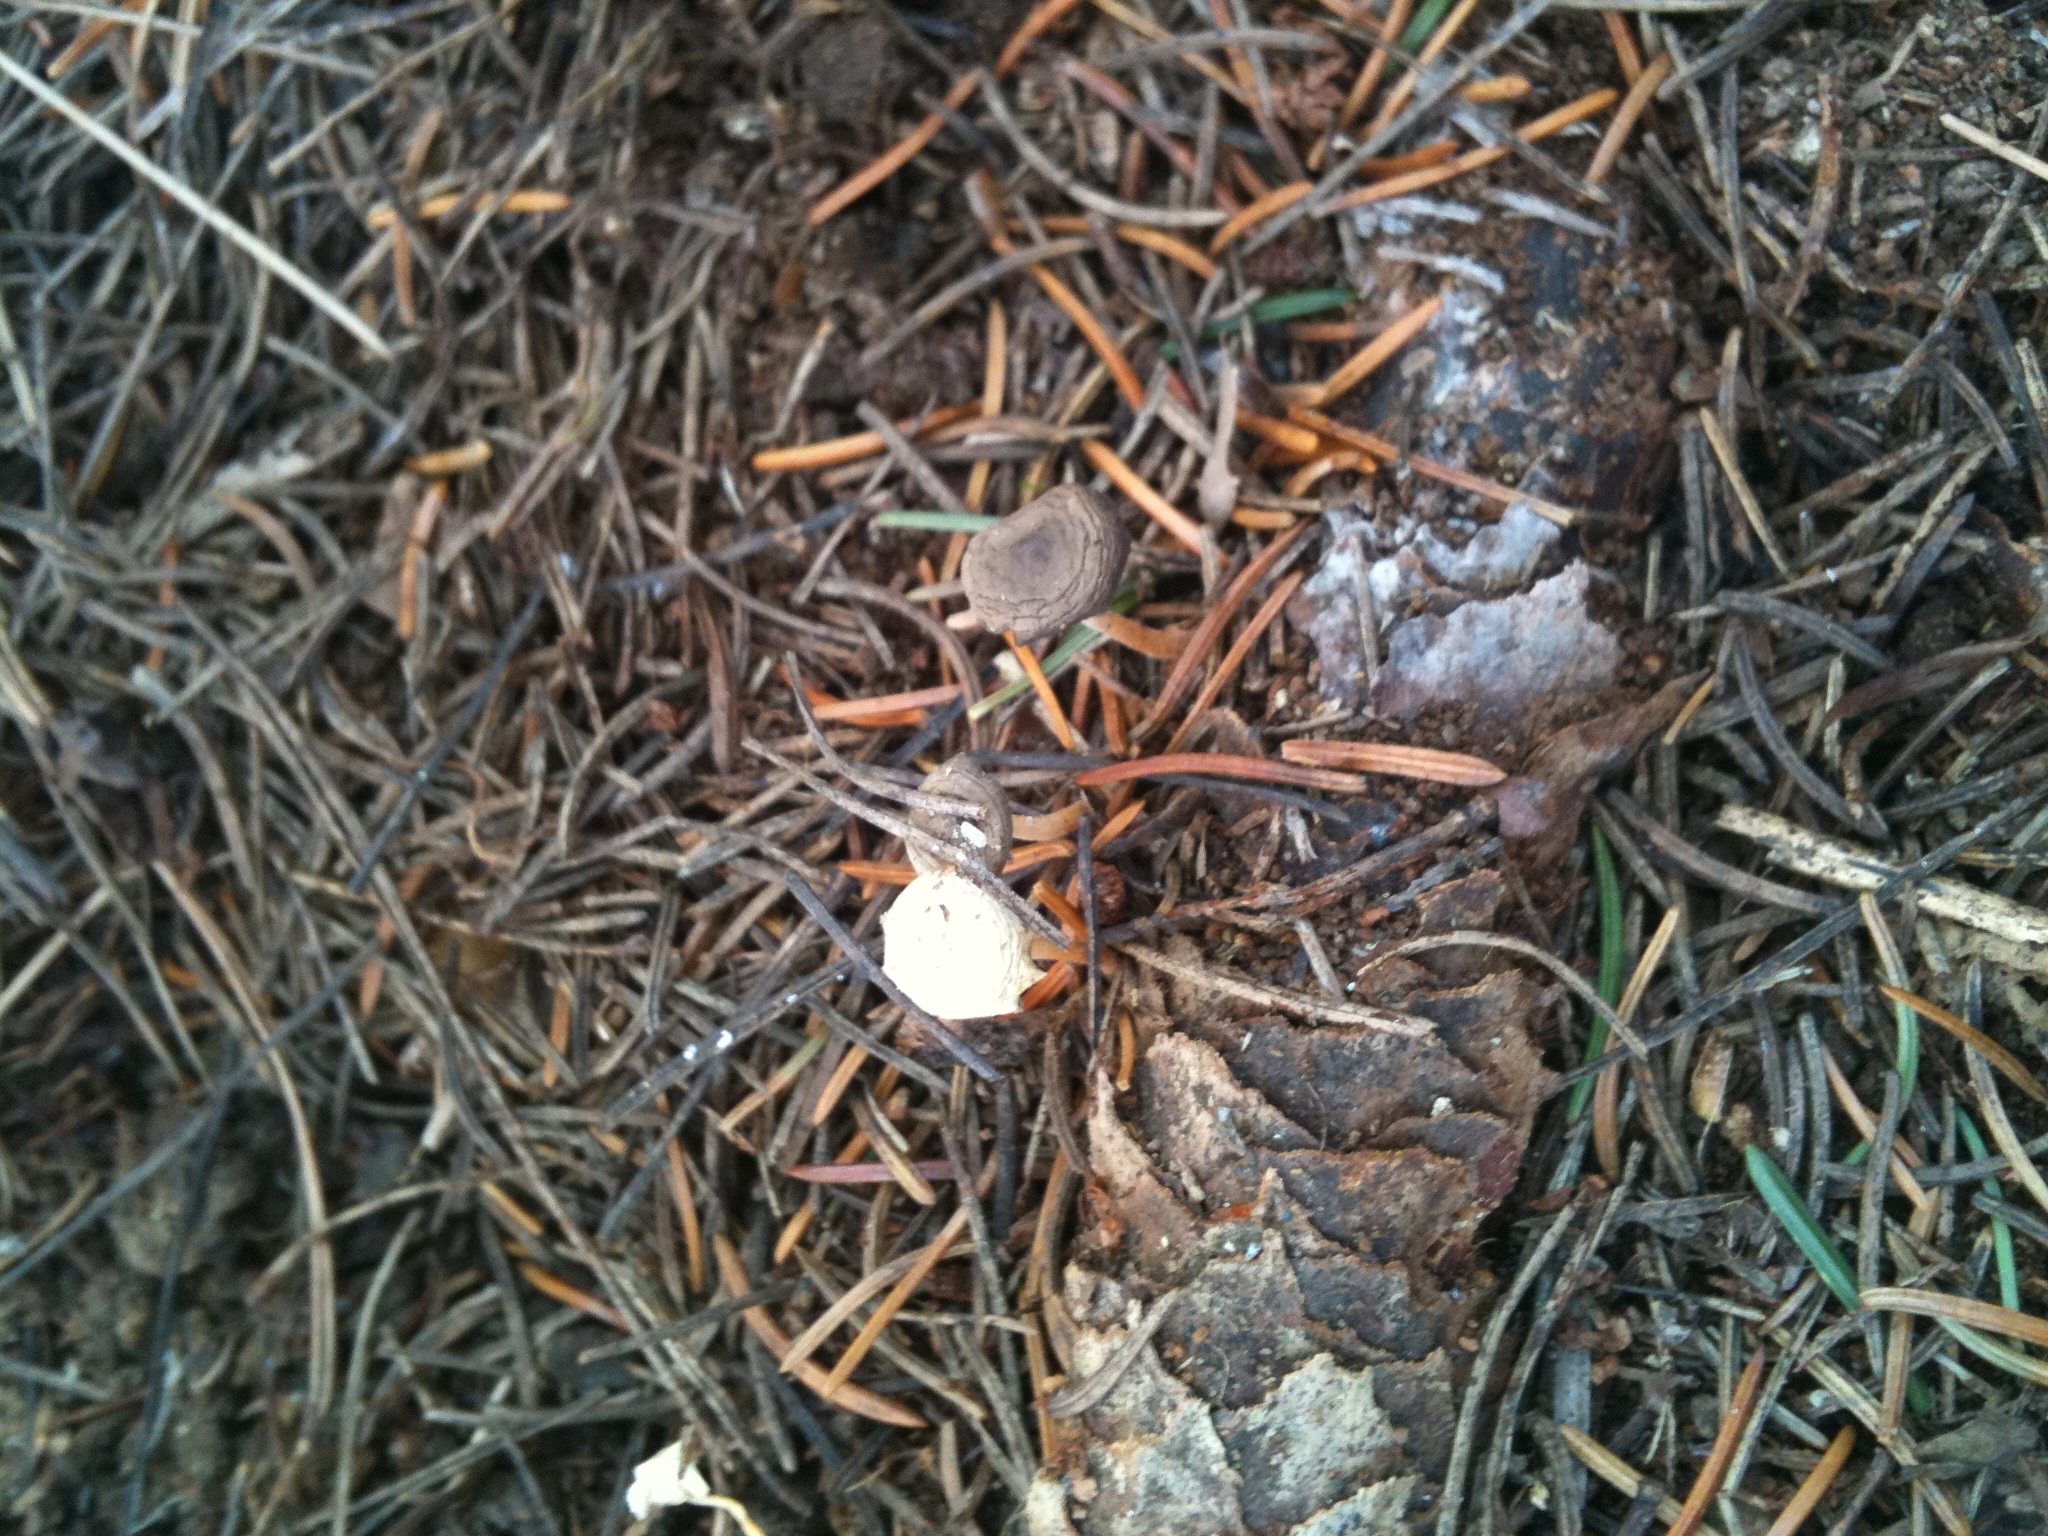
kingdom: Fungi
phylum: Basidiomycota
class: Agaricomycetes
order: Agaricales
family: Physalacriaceae
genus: Strobilurus
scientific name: Strobilurus stephanocystis
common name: Russian conecap
